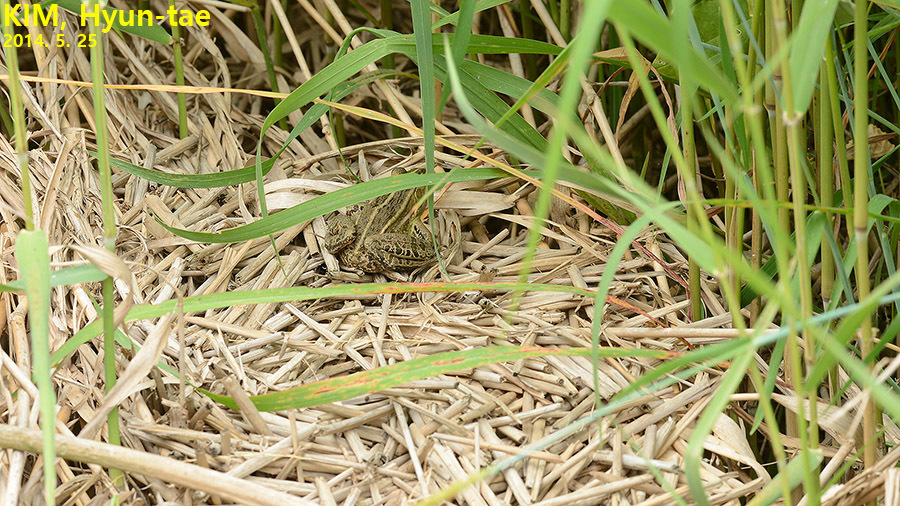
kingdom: Animalia
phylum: Chordata
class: Amphibia
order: Anura
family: Ranidae
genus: Pelophylax
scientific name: Pelophylax nigromaculatus
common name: Black-spotted pond frog
